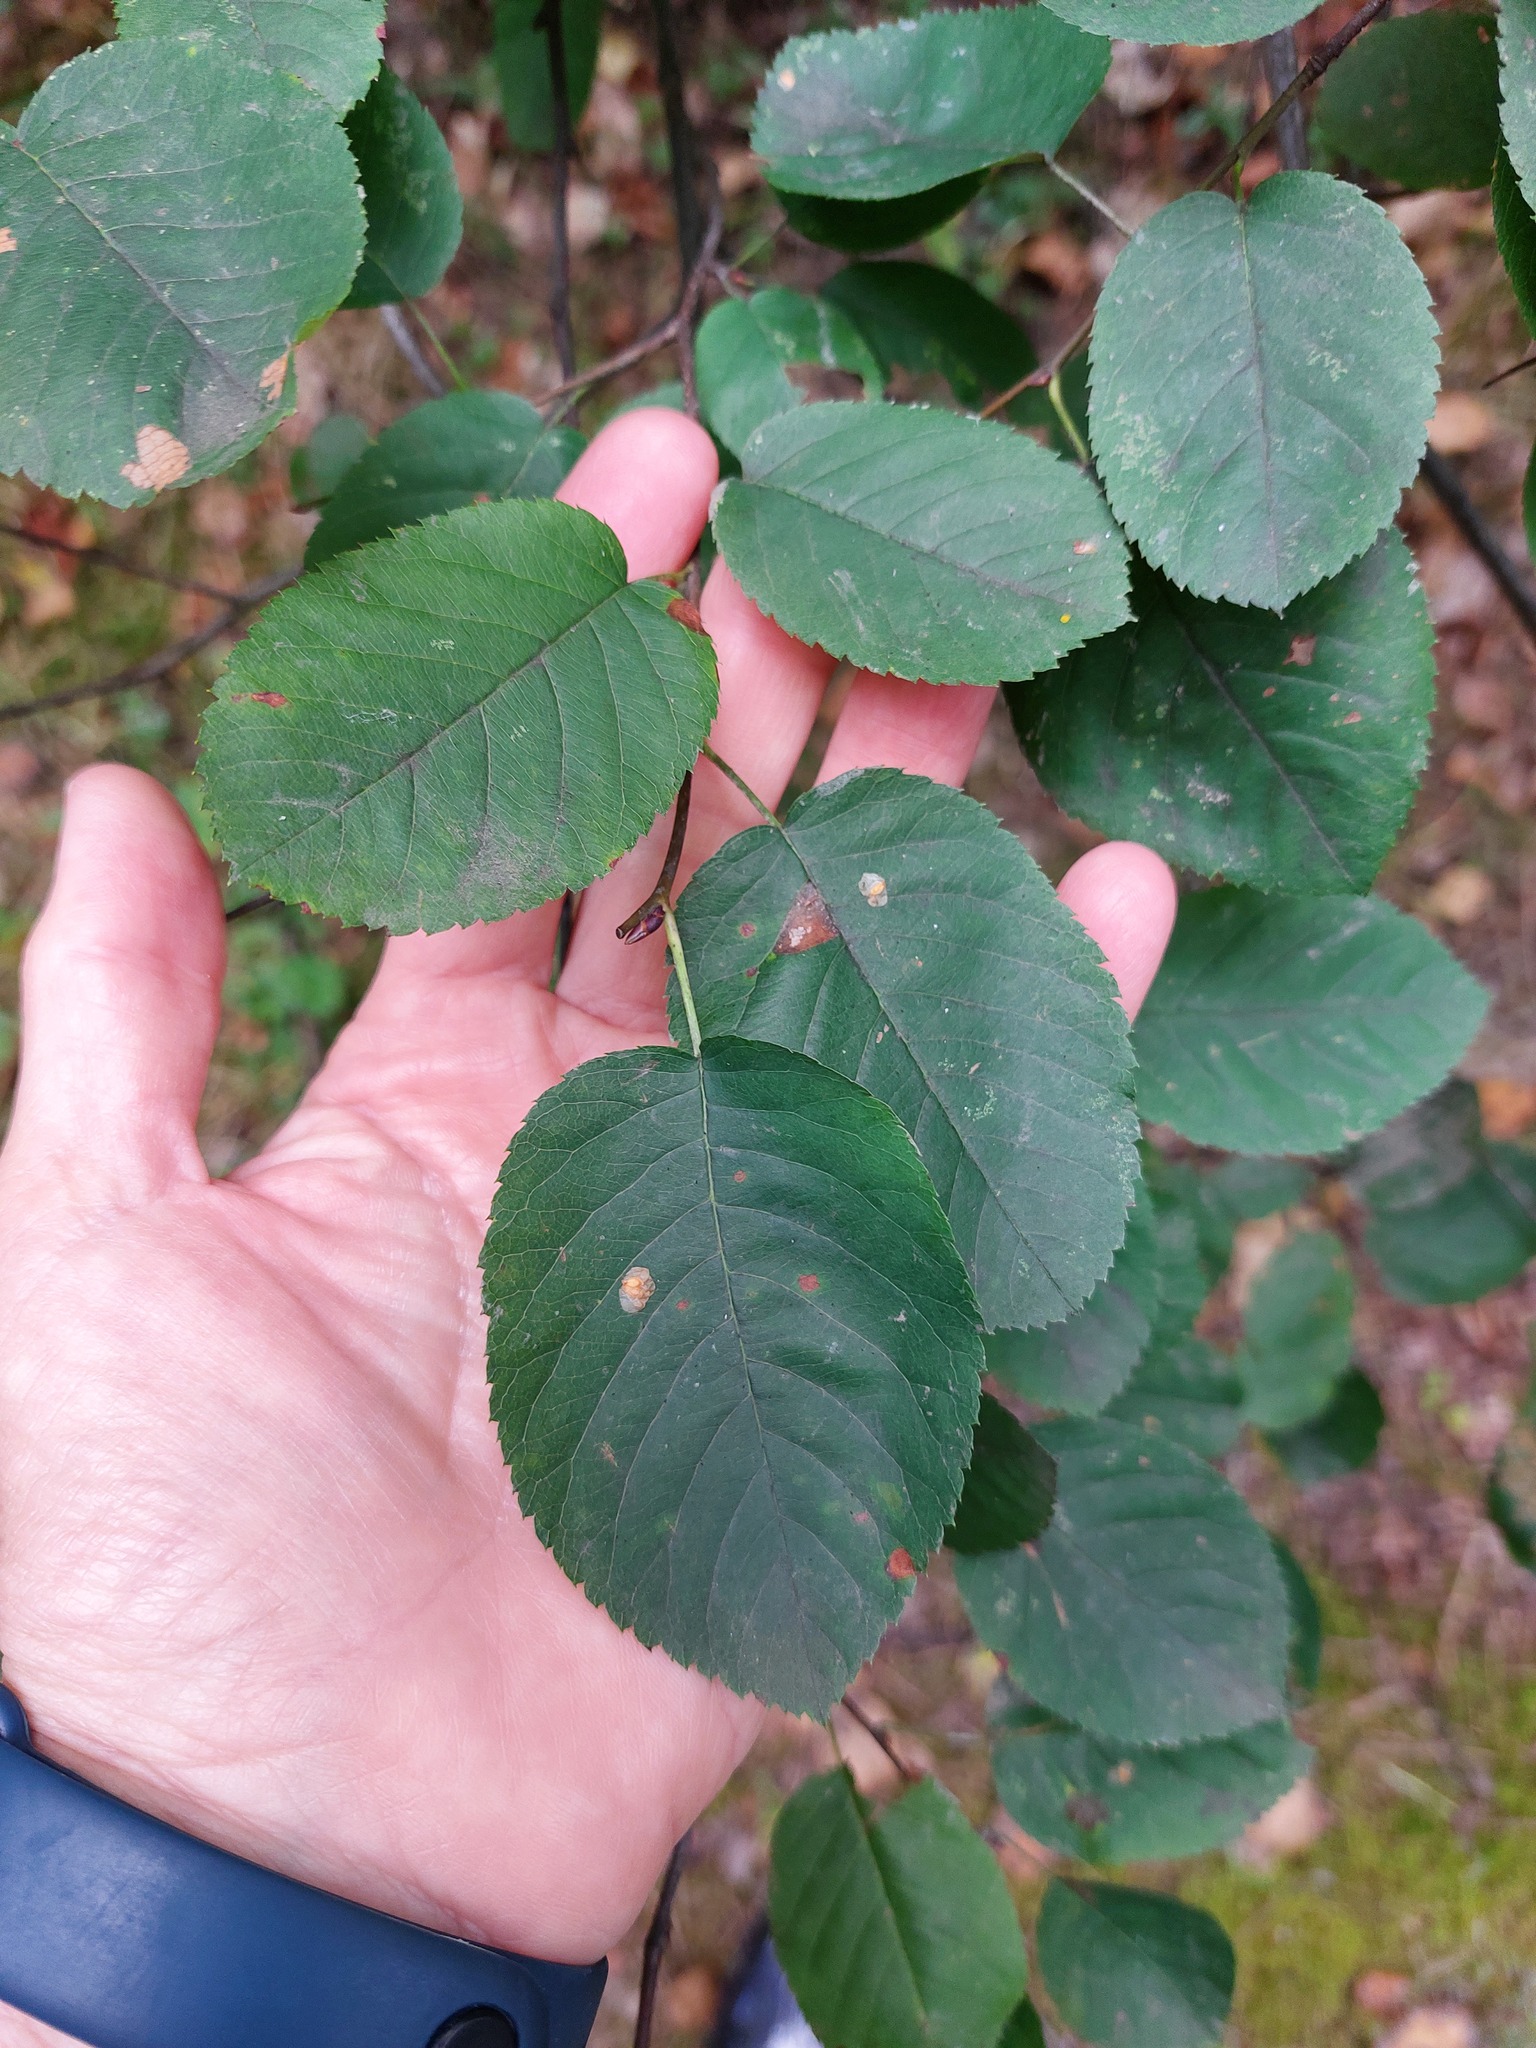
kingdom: Plantae
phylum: Tracheophyta
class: Magnoliopsida
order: Rosales
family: Rosaceae
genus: Amelanchier
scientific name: Amelanchier
